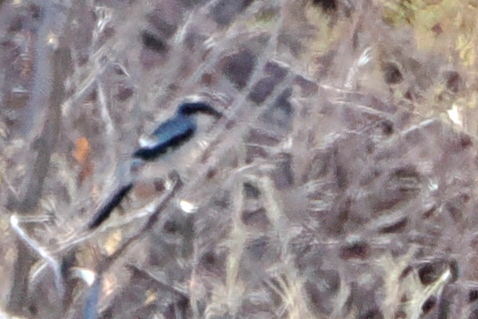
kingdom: Animalia
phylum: Chordata
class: Aves
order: Passeriformes
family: Laniidae
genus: Lanius
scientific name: Lanius ludovicianus
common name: Loggerhead shrike
